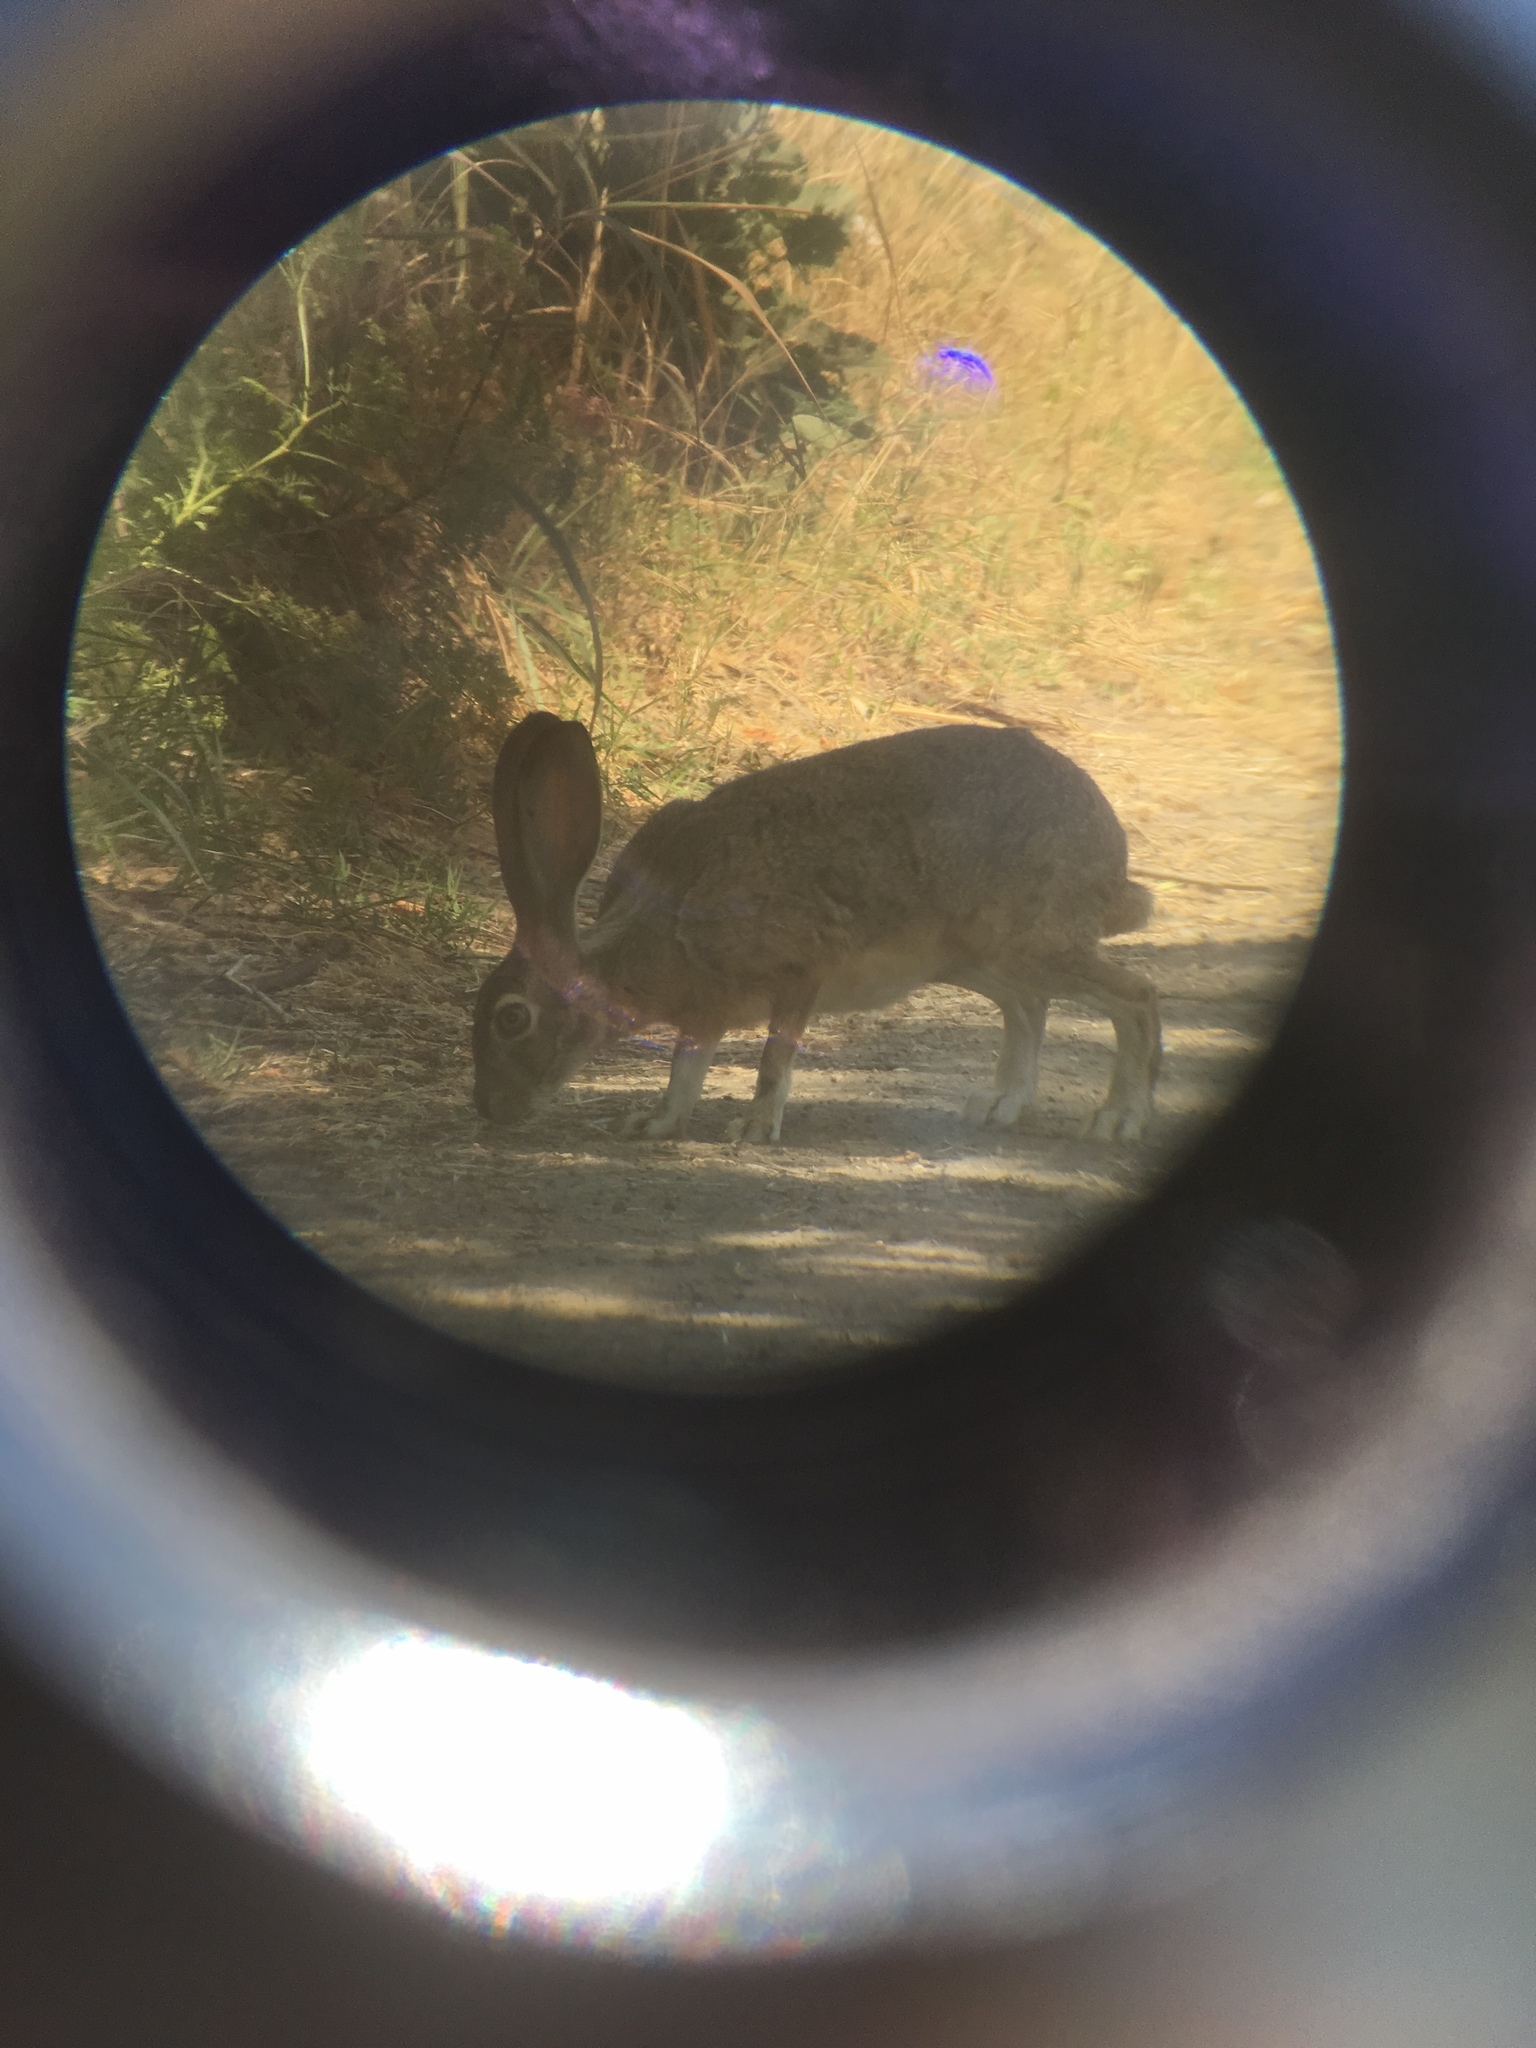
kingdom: Animalia
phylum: Chordata
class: Mammalia
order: Lagomorpha
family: Leporidae
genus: Lepus
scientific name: Lepus californicus
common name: Black-tailed jackrabbit
